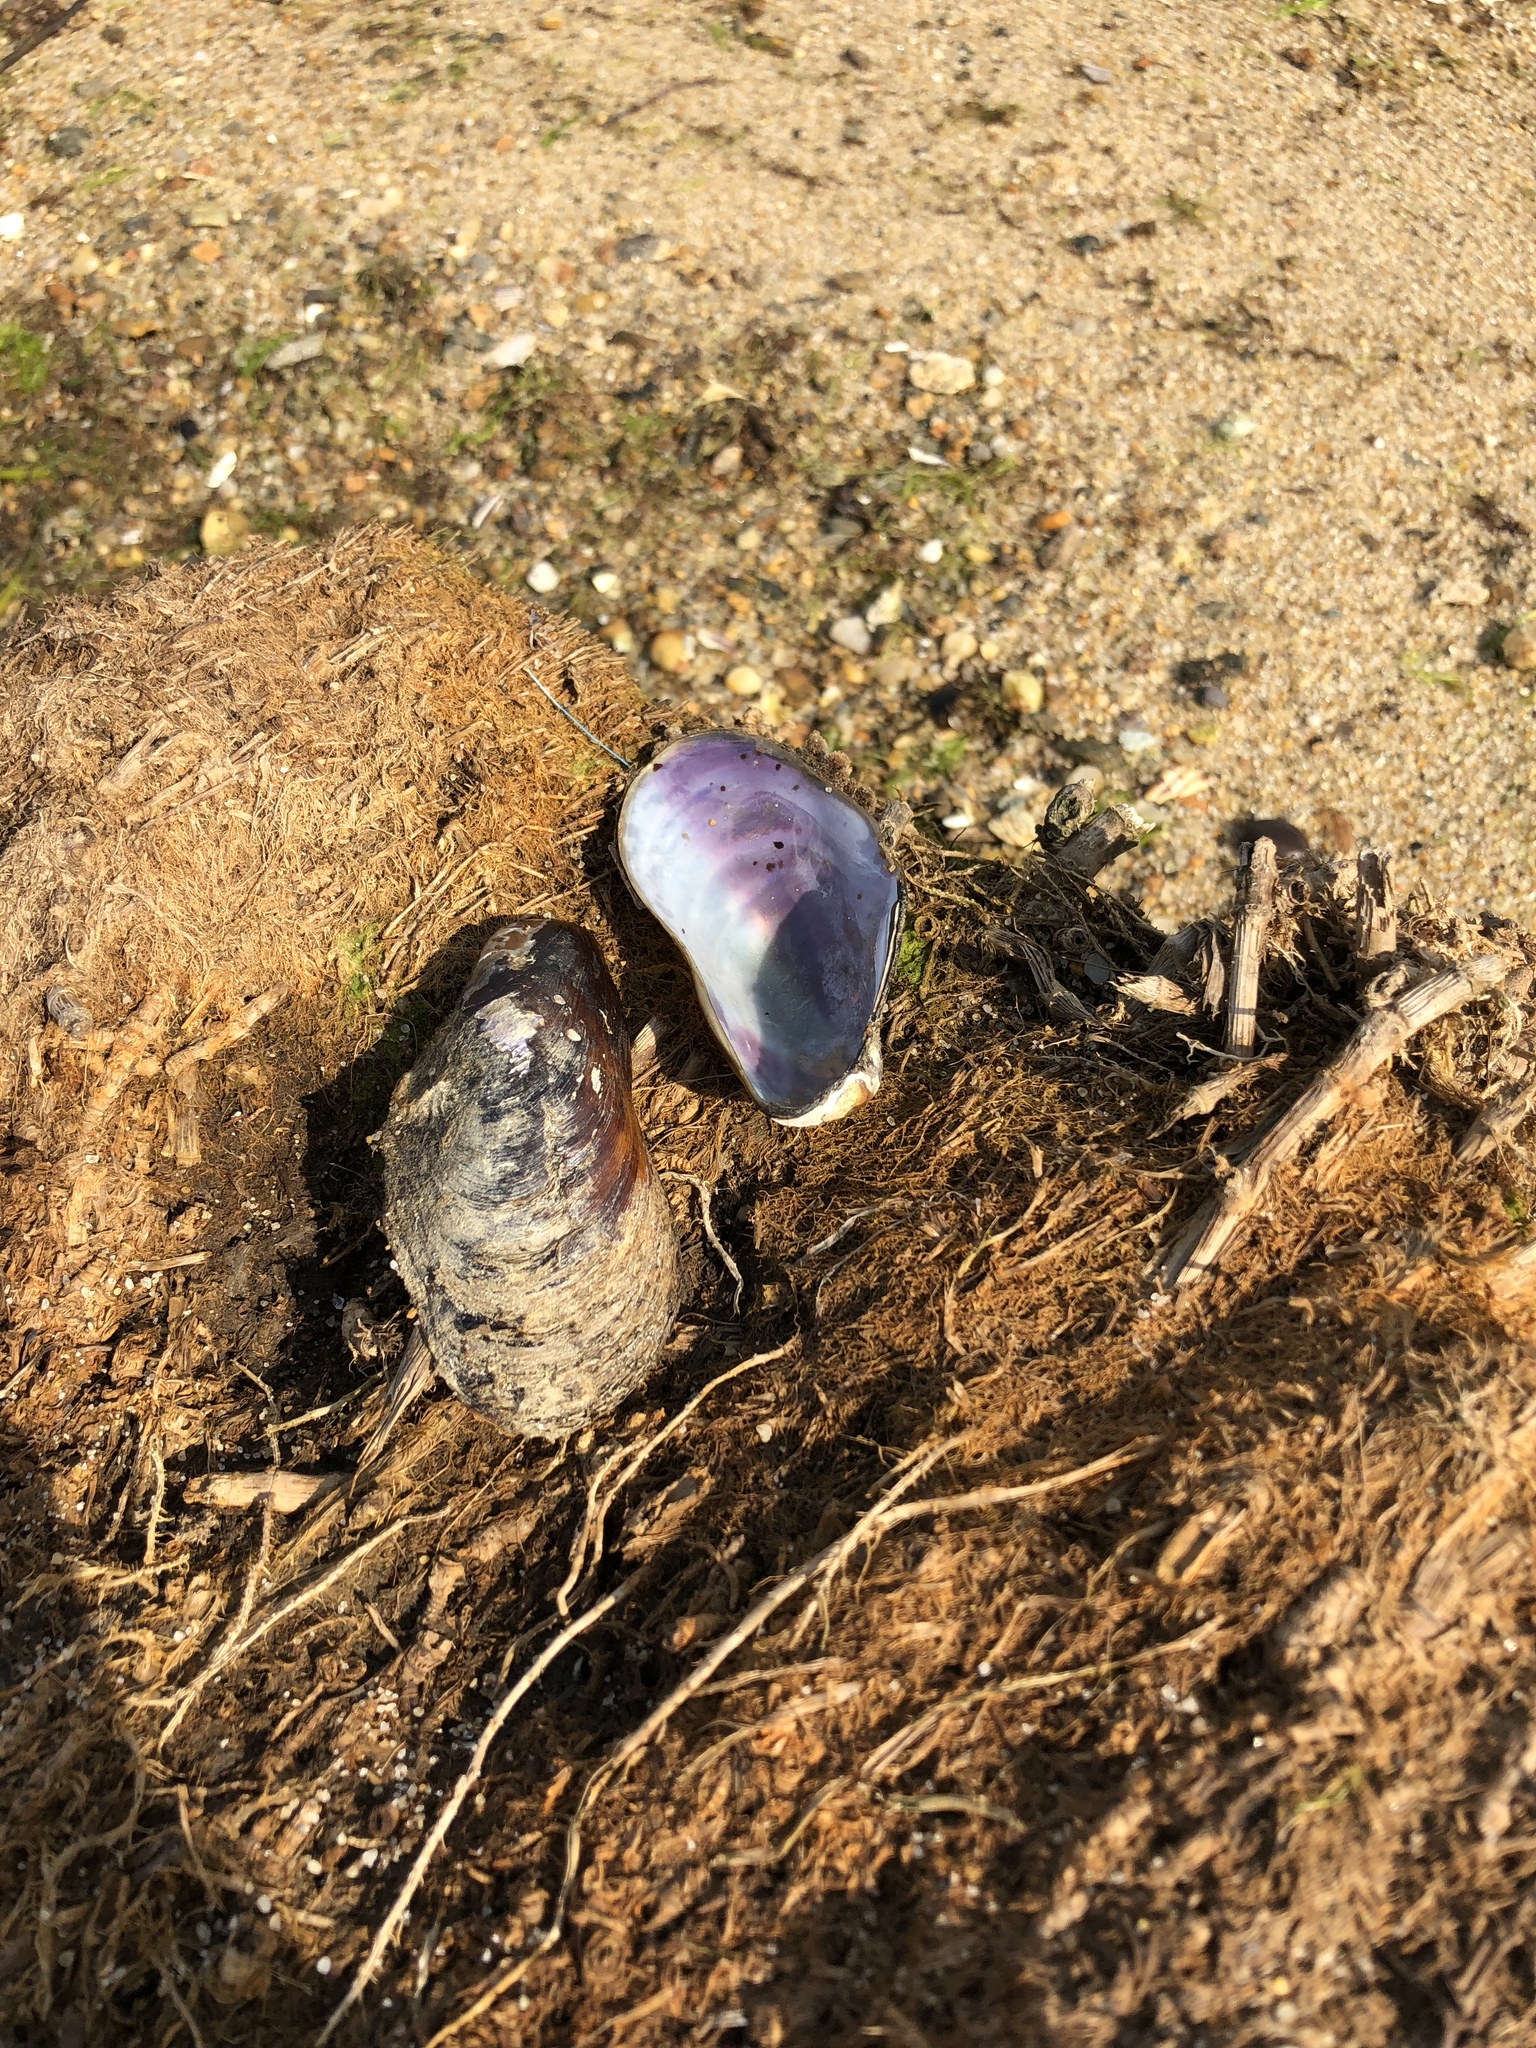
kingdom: Animalia
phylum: Mollusca
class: Bivalvia
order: Mytilida
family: Mytilidae
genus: Modiolus
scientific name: Modiolus modiolus
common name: Horse-mussel
